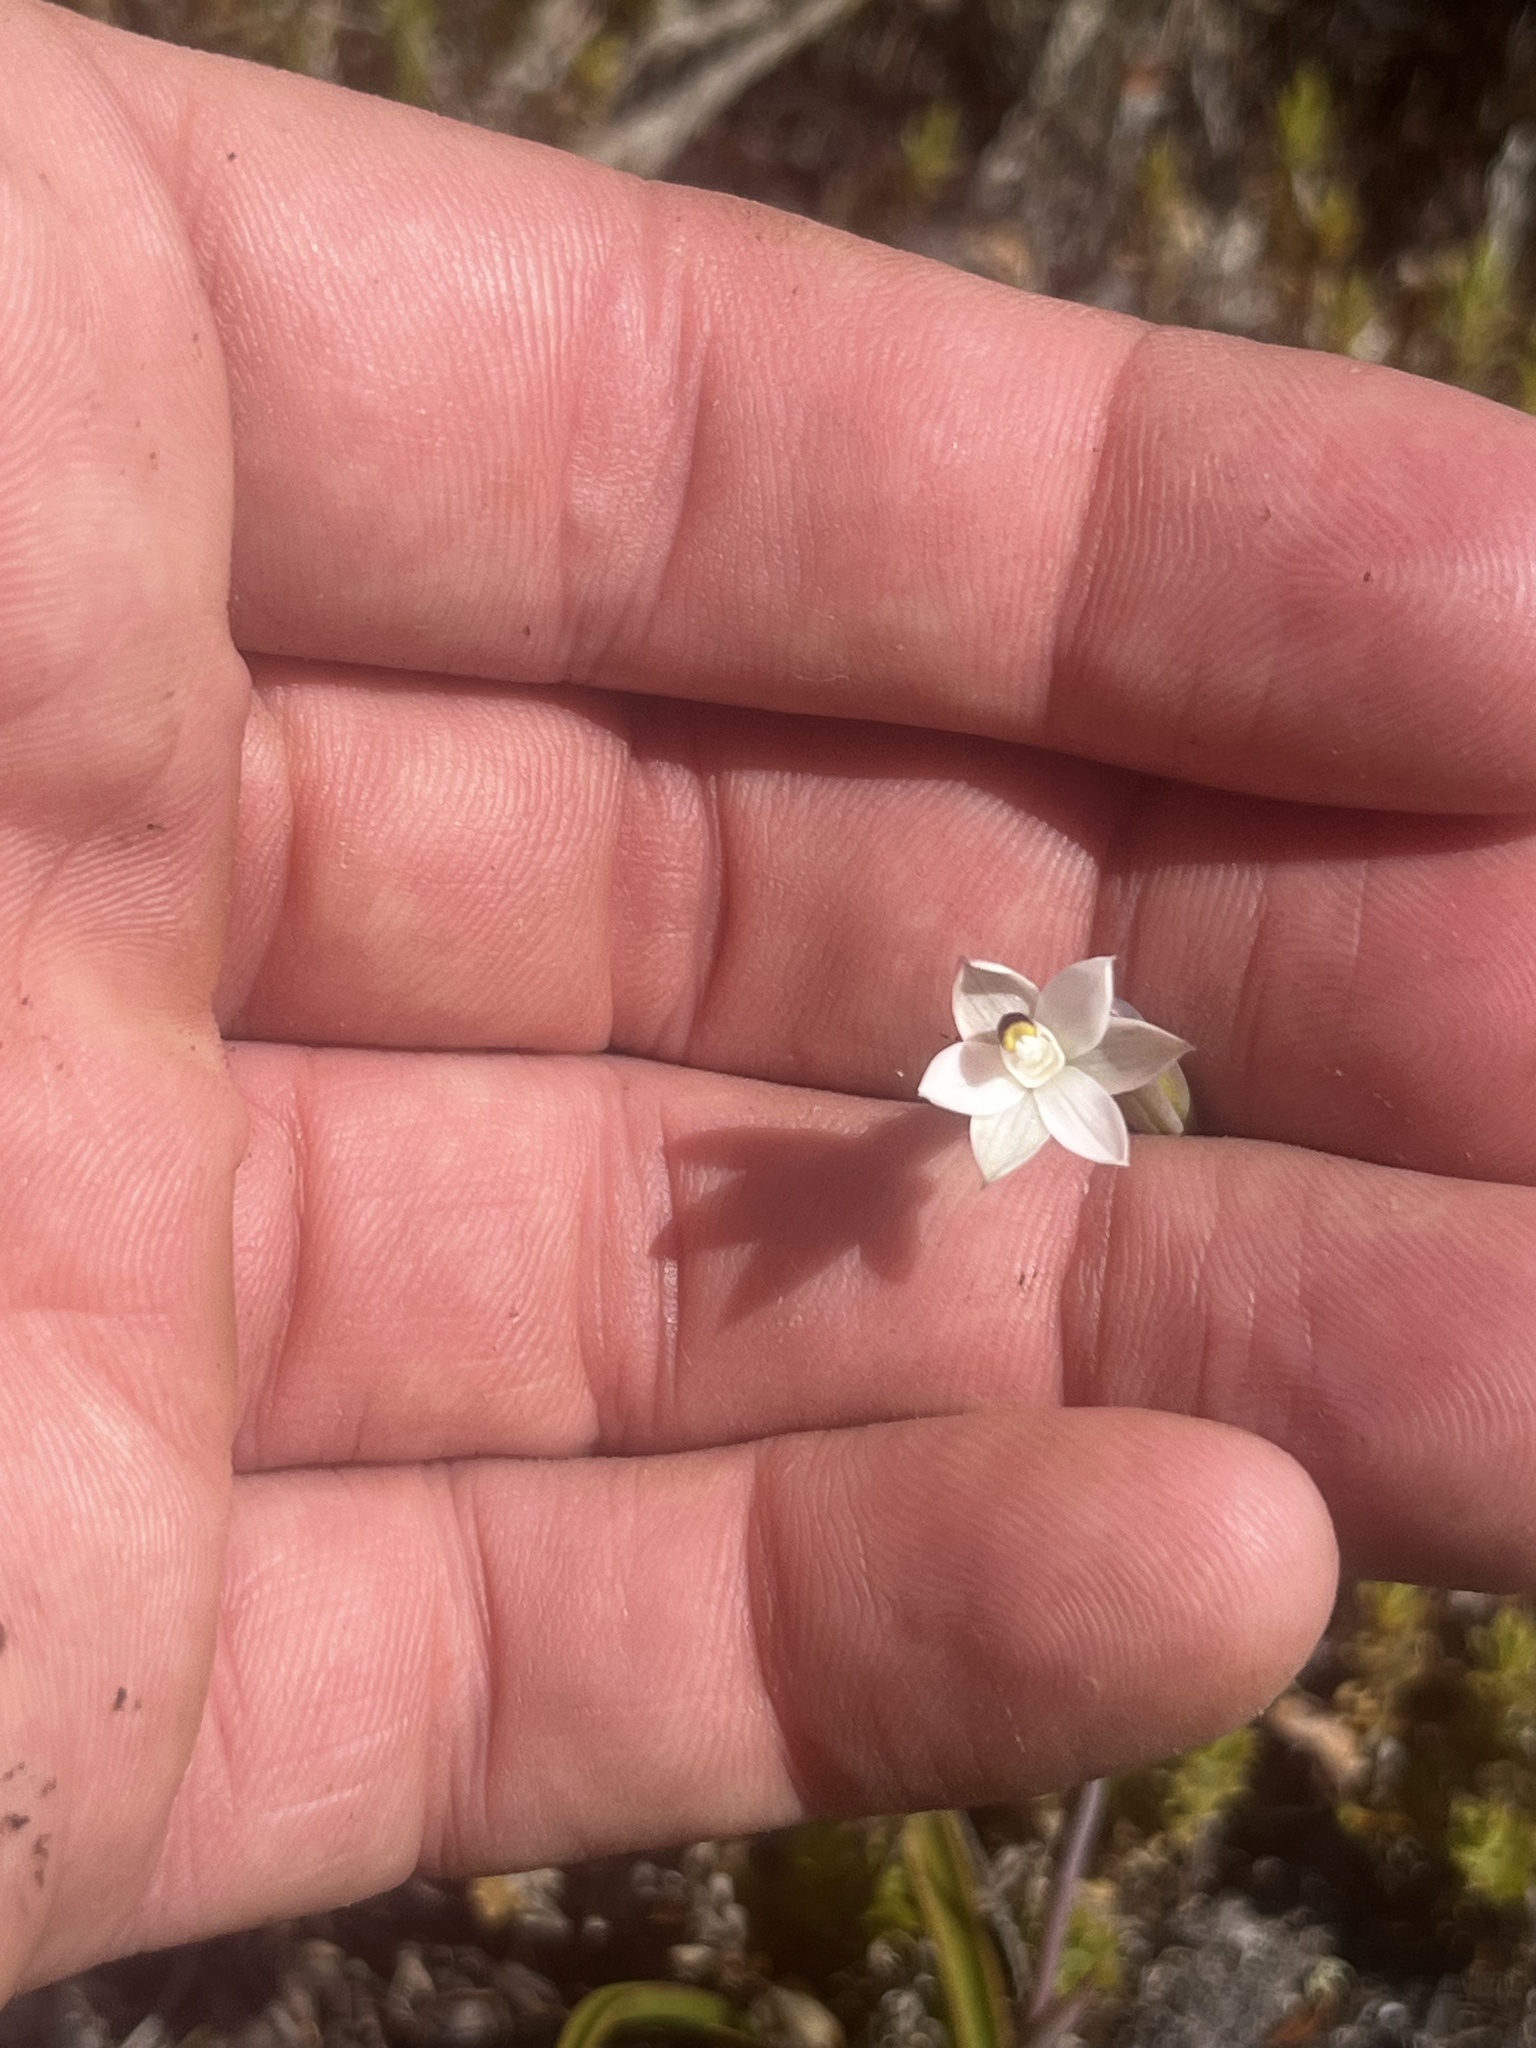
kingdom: Plantae
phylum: Tracheophyta
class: Liliopsida
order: Asparagales
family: Orchidaceae
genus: Thelymitra
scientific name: Thelymitra longifolia
